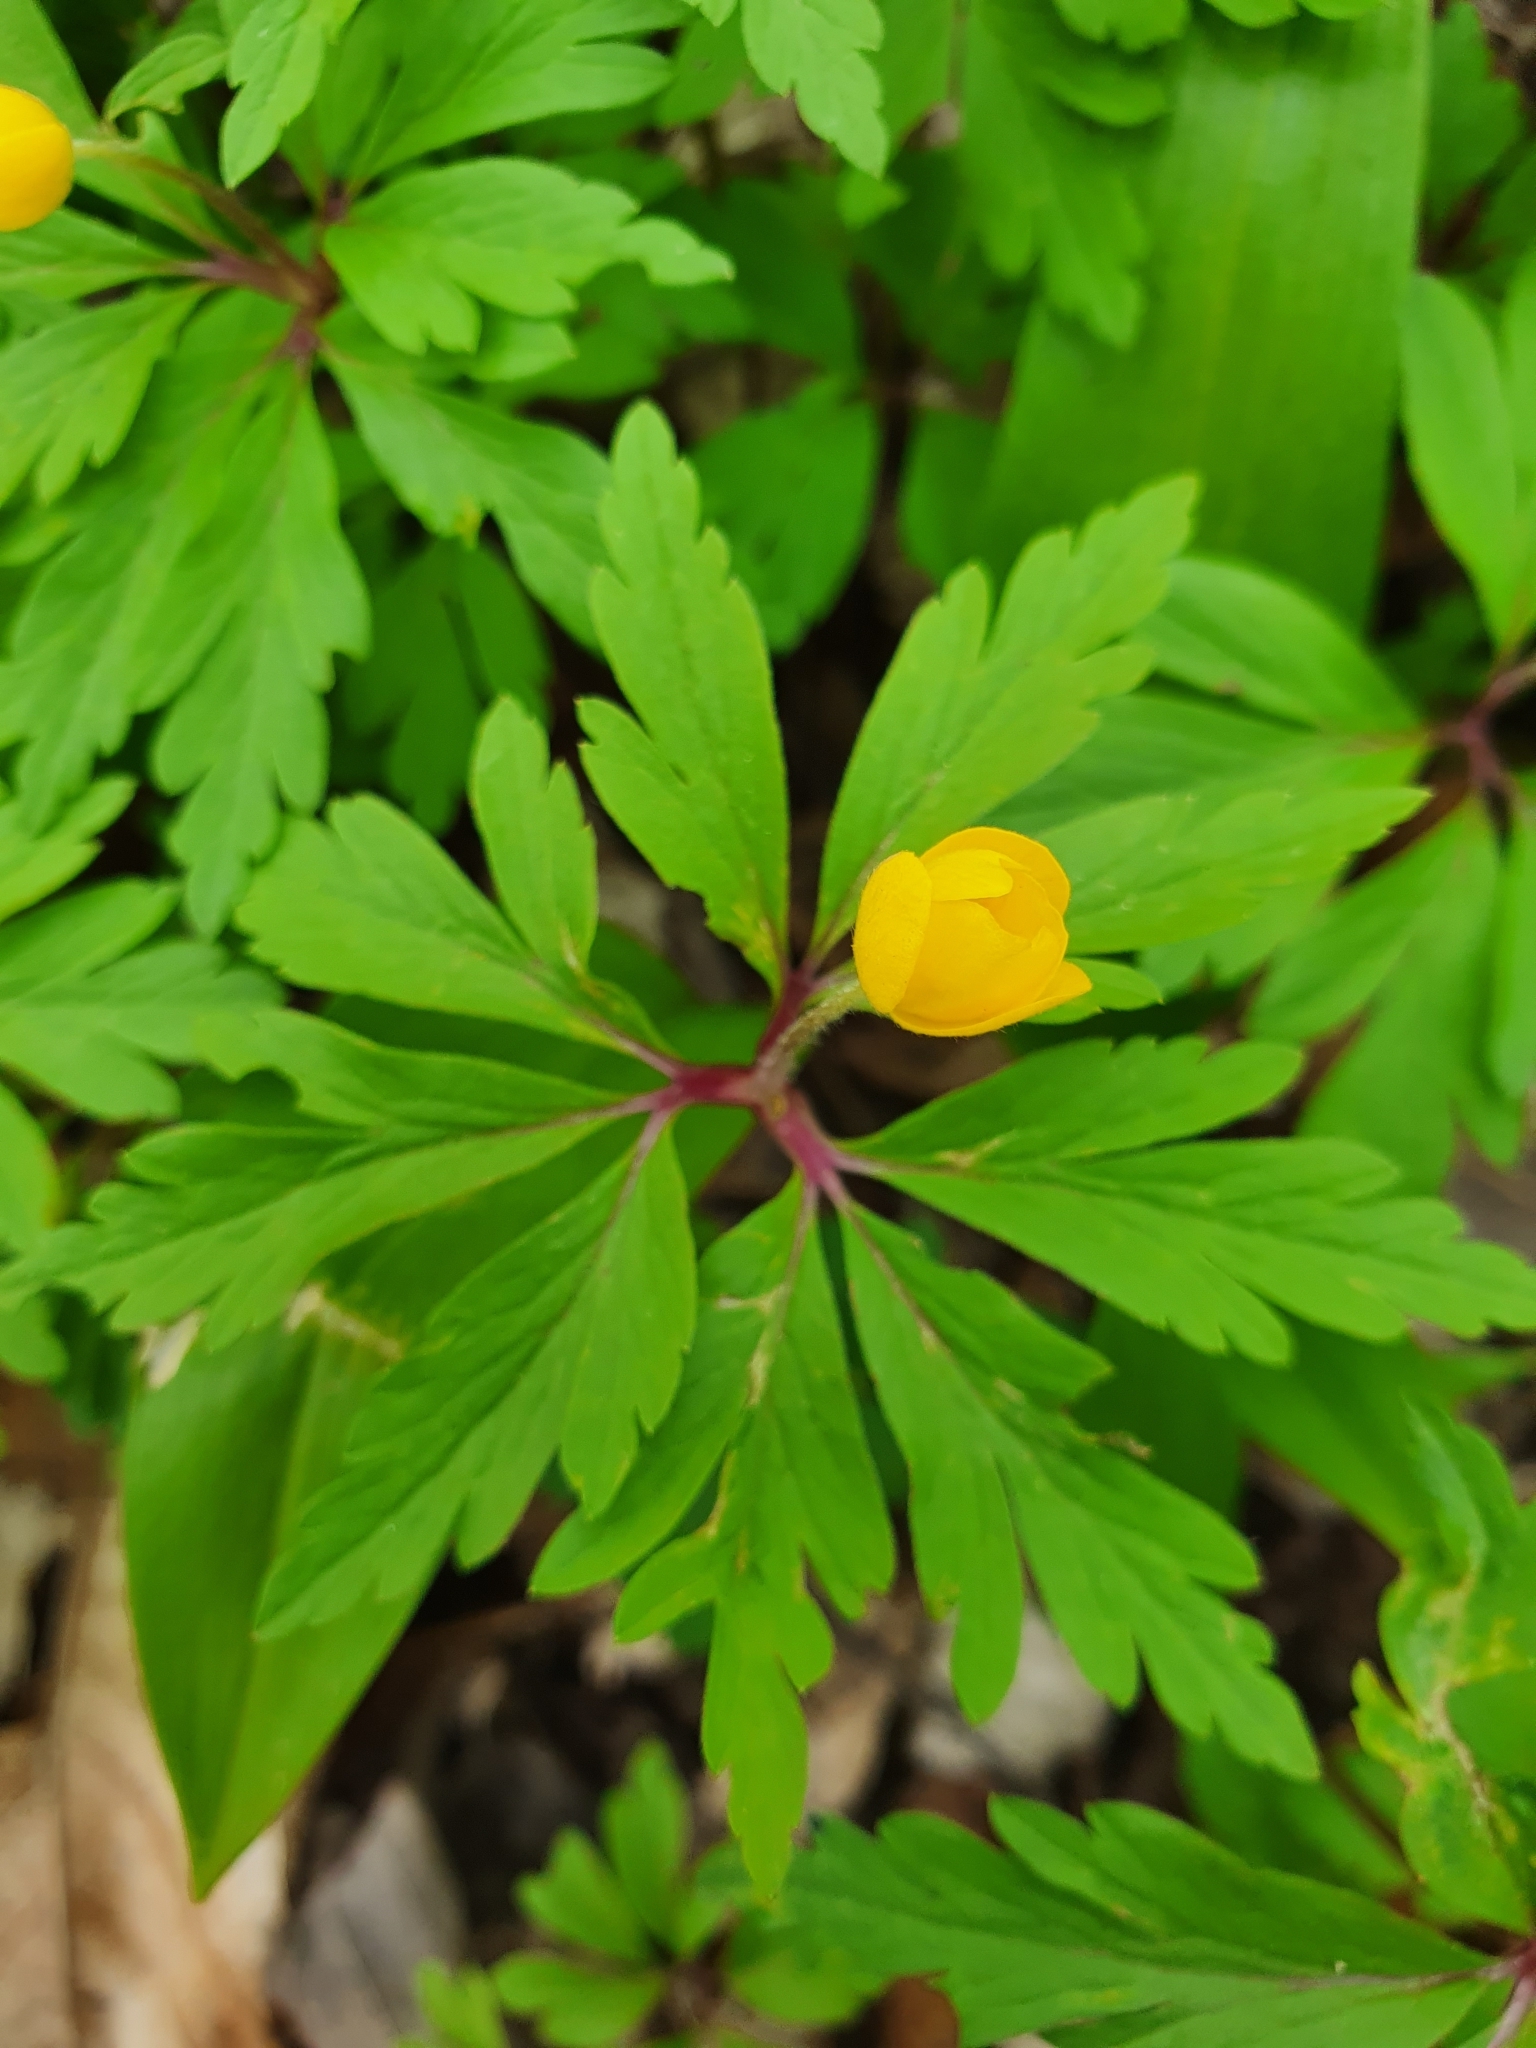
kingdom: Plantae
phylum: Tracheophyta
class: Magnoliopsida
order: Ranunculales
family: Ranunculaceae
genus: Anemone
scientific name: Anemone ranunculoides
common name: Yellow anemone
